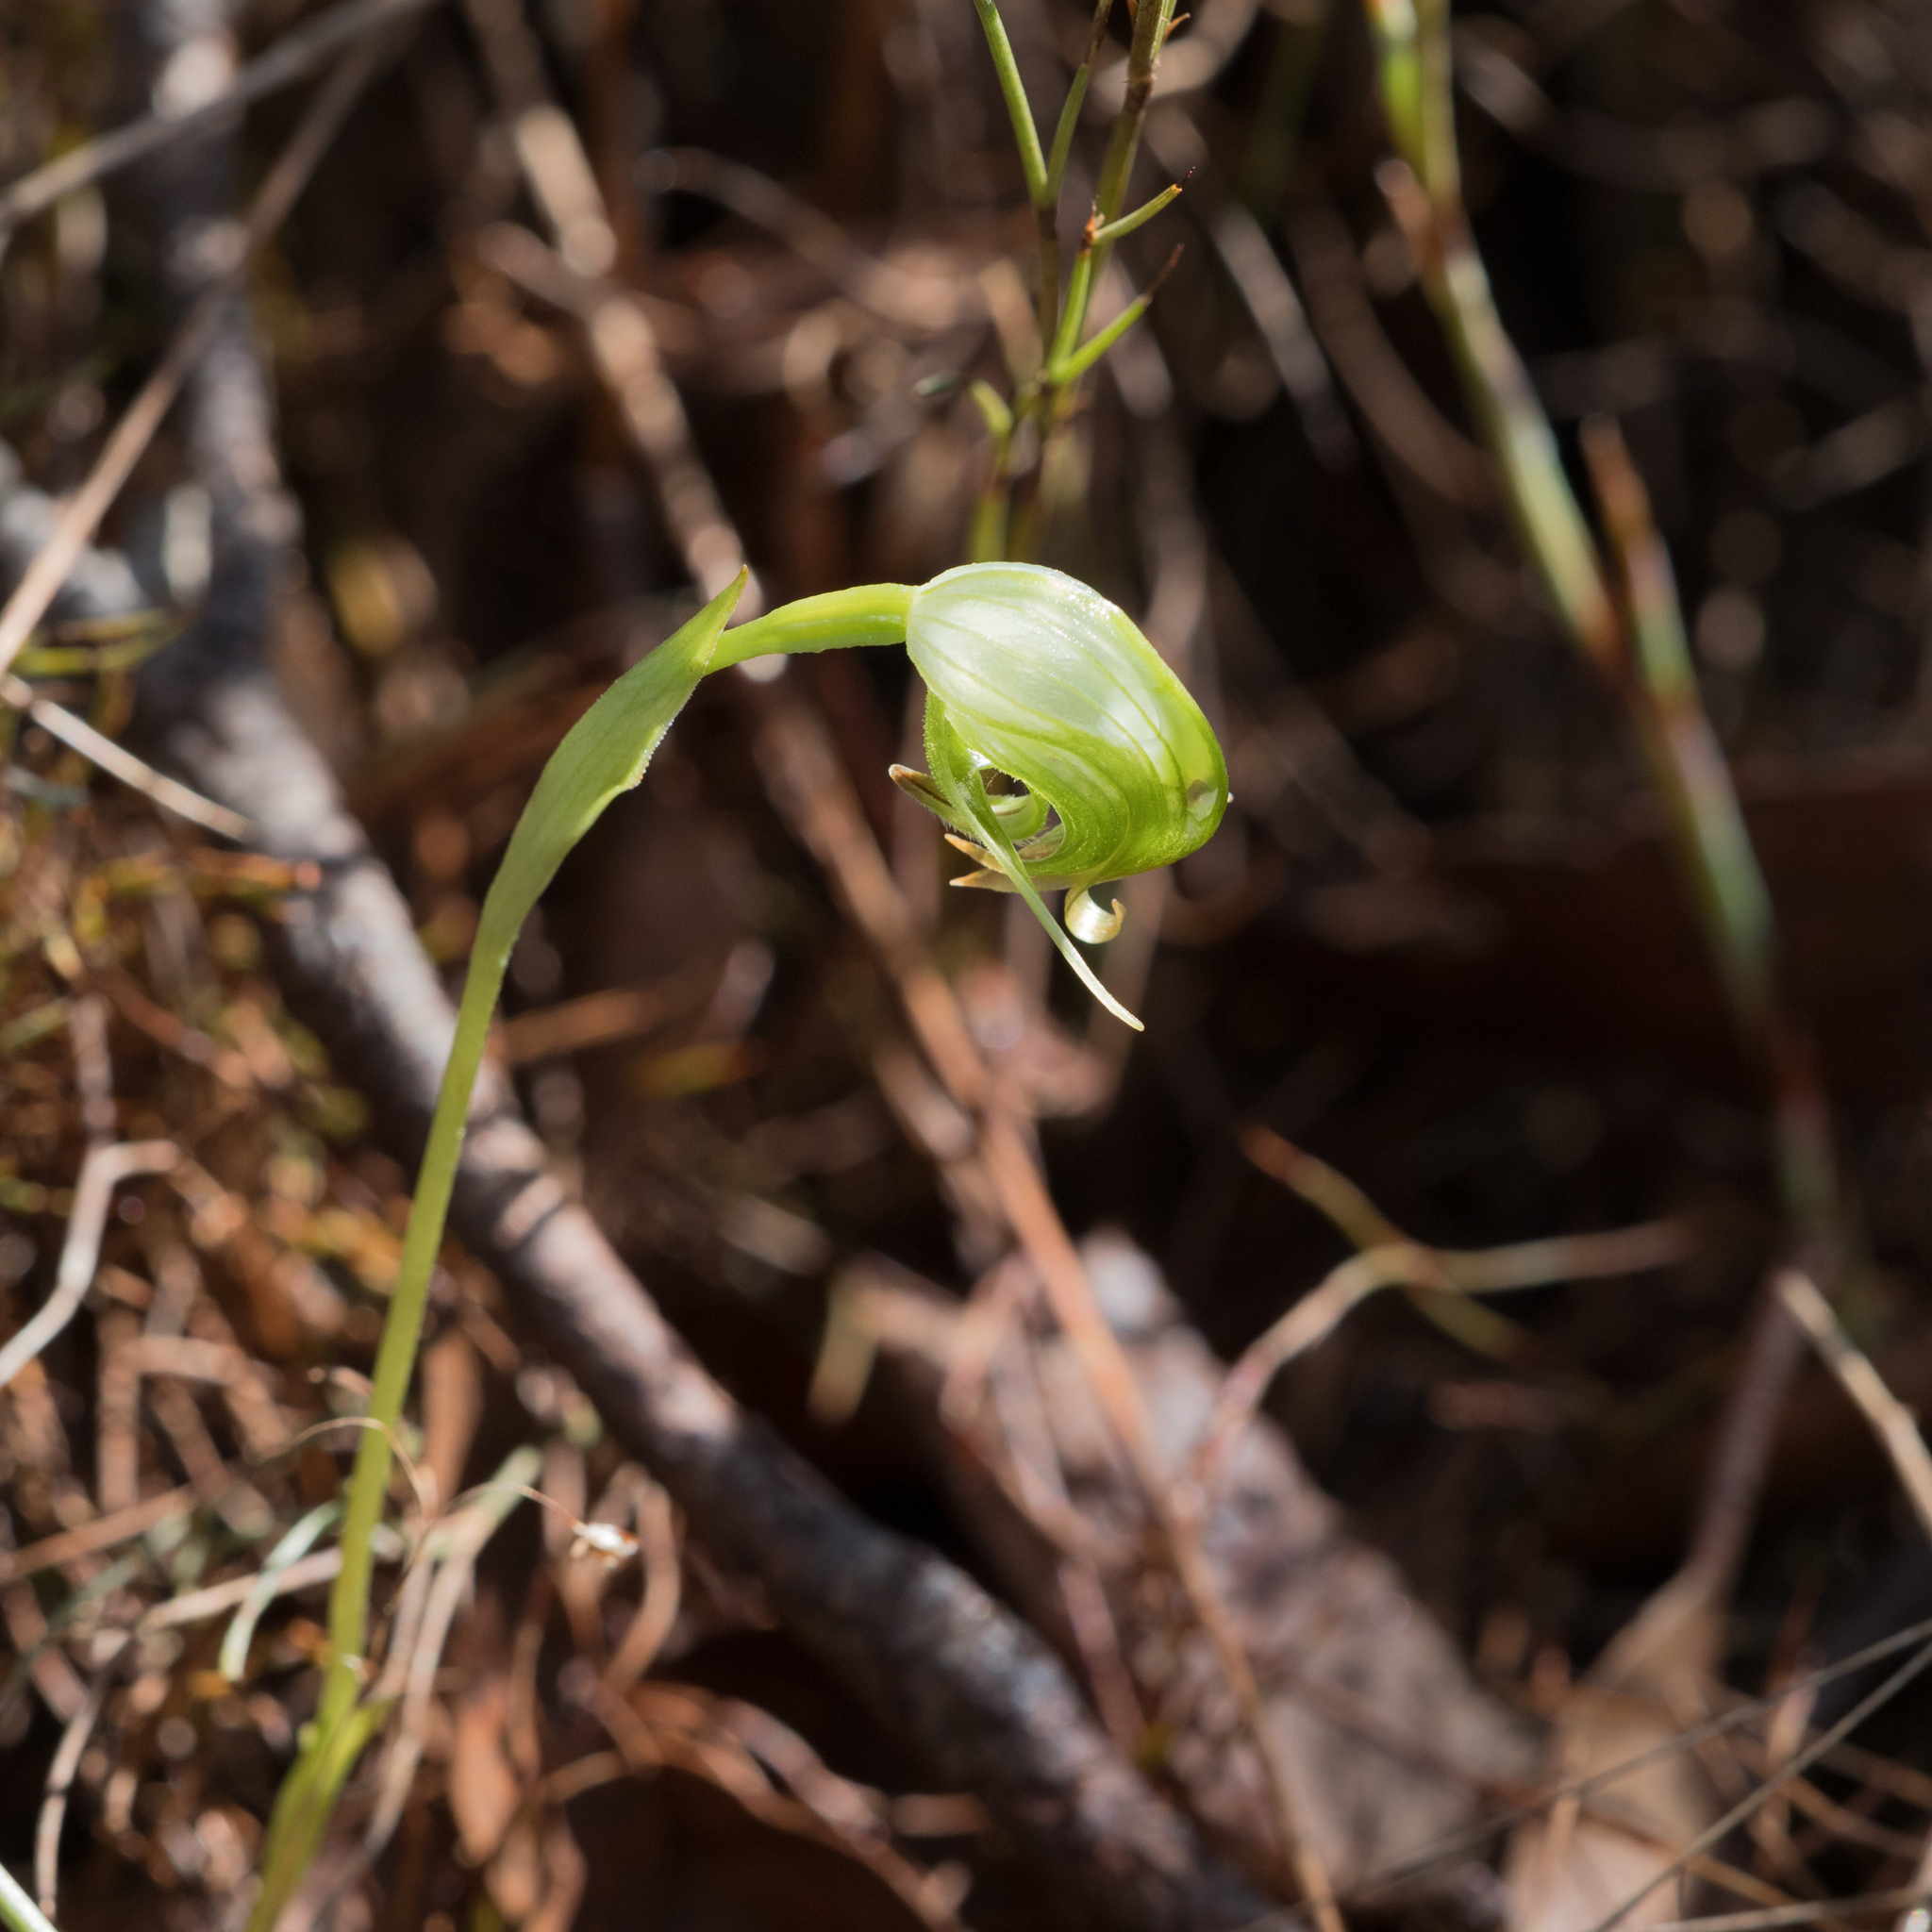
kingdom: Plantae
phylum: Tracheophyta
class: Liliopsida
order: Asparagales
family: Orchidaceae
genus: Pterostylis
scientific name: Pterostylis nutans
